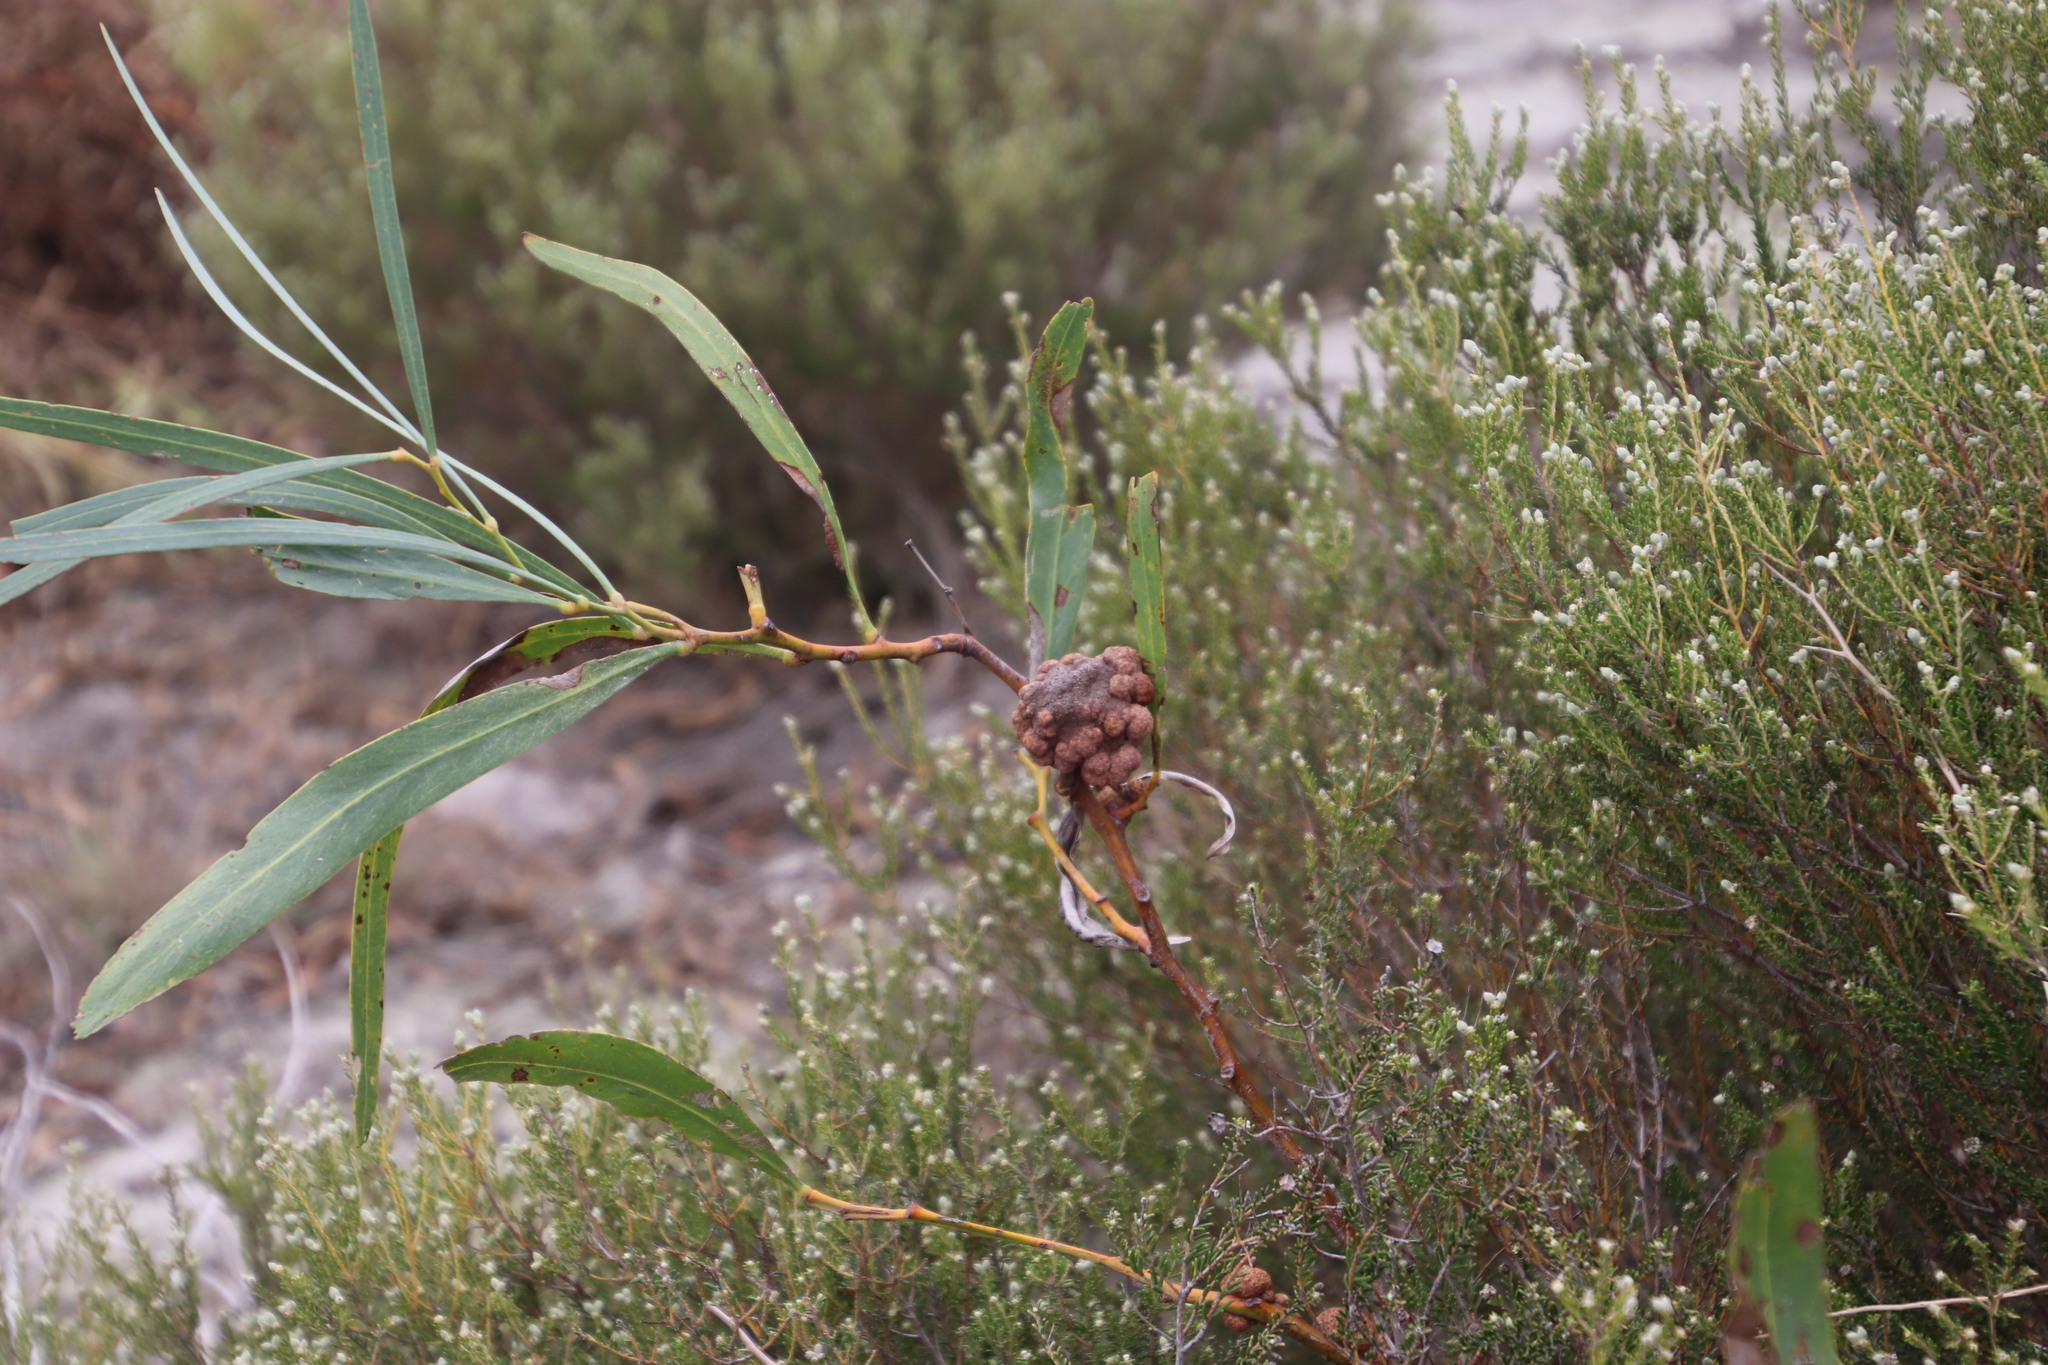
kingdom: Plantae
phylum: Tracheophyta
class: Magnoliopsida
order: Fabales
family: Fabaceae
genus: Acacia
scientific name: Acacia saligna
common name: Orange wattle
